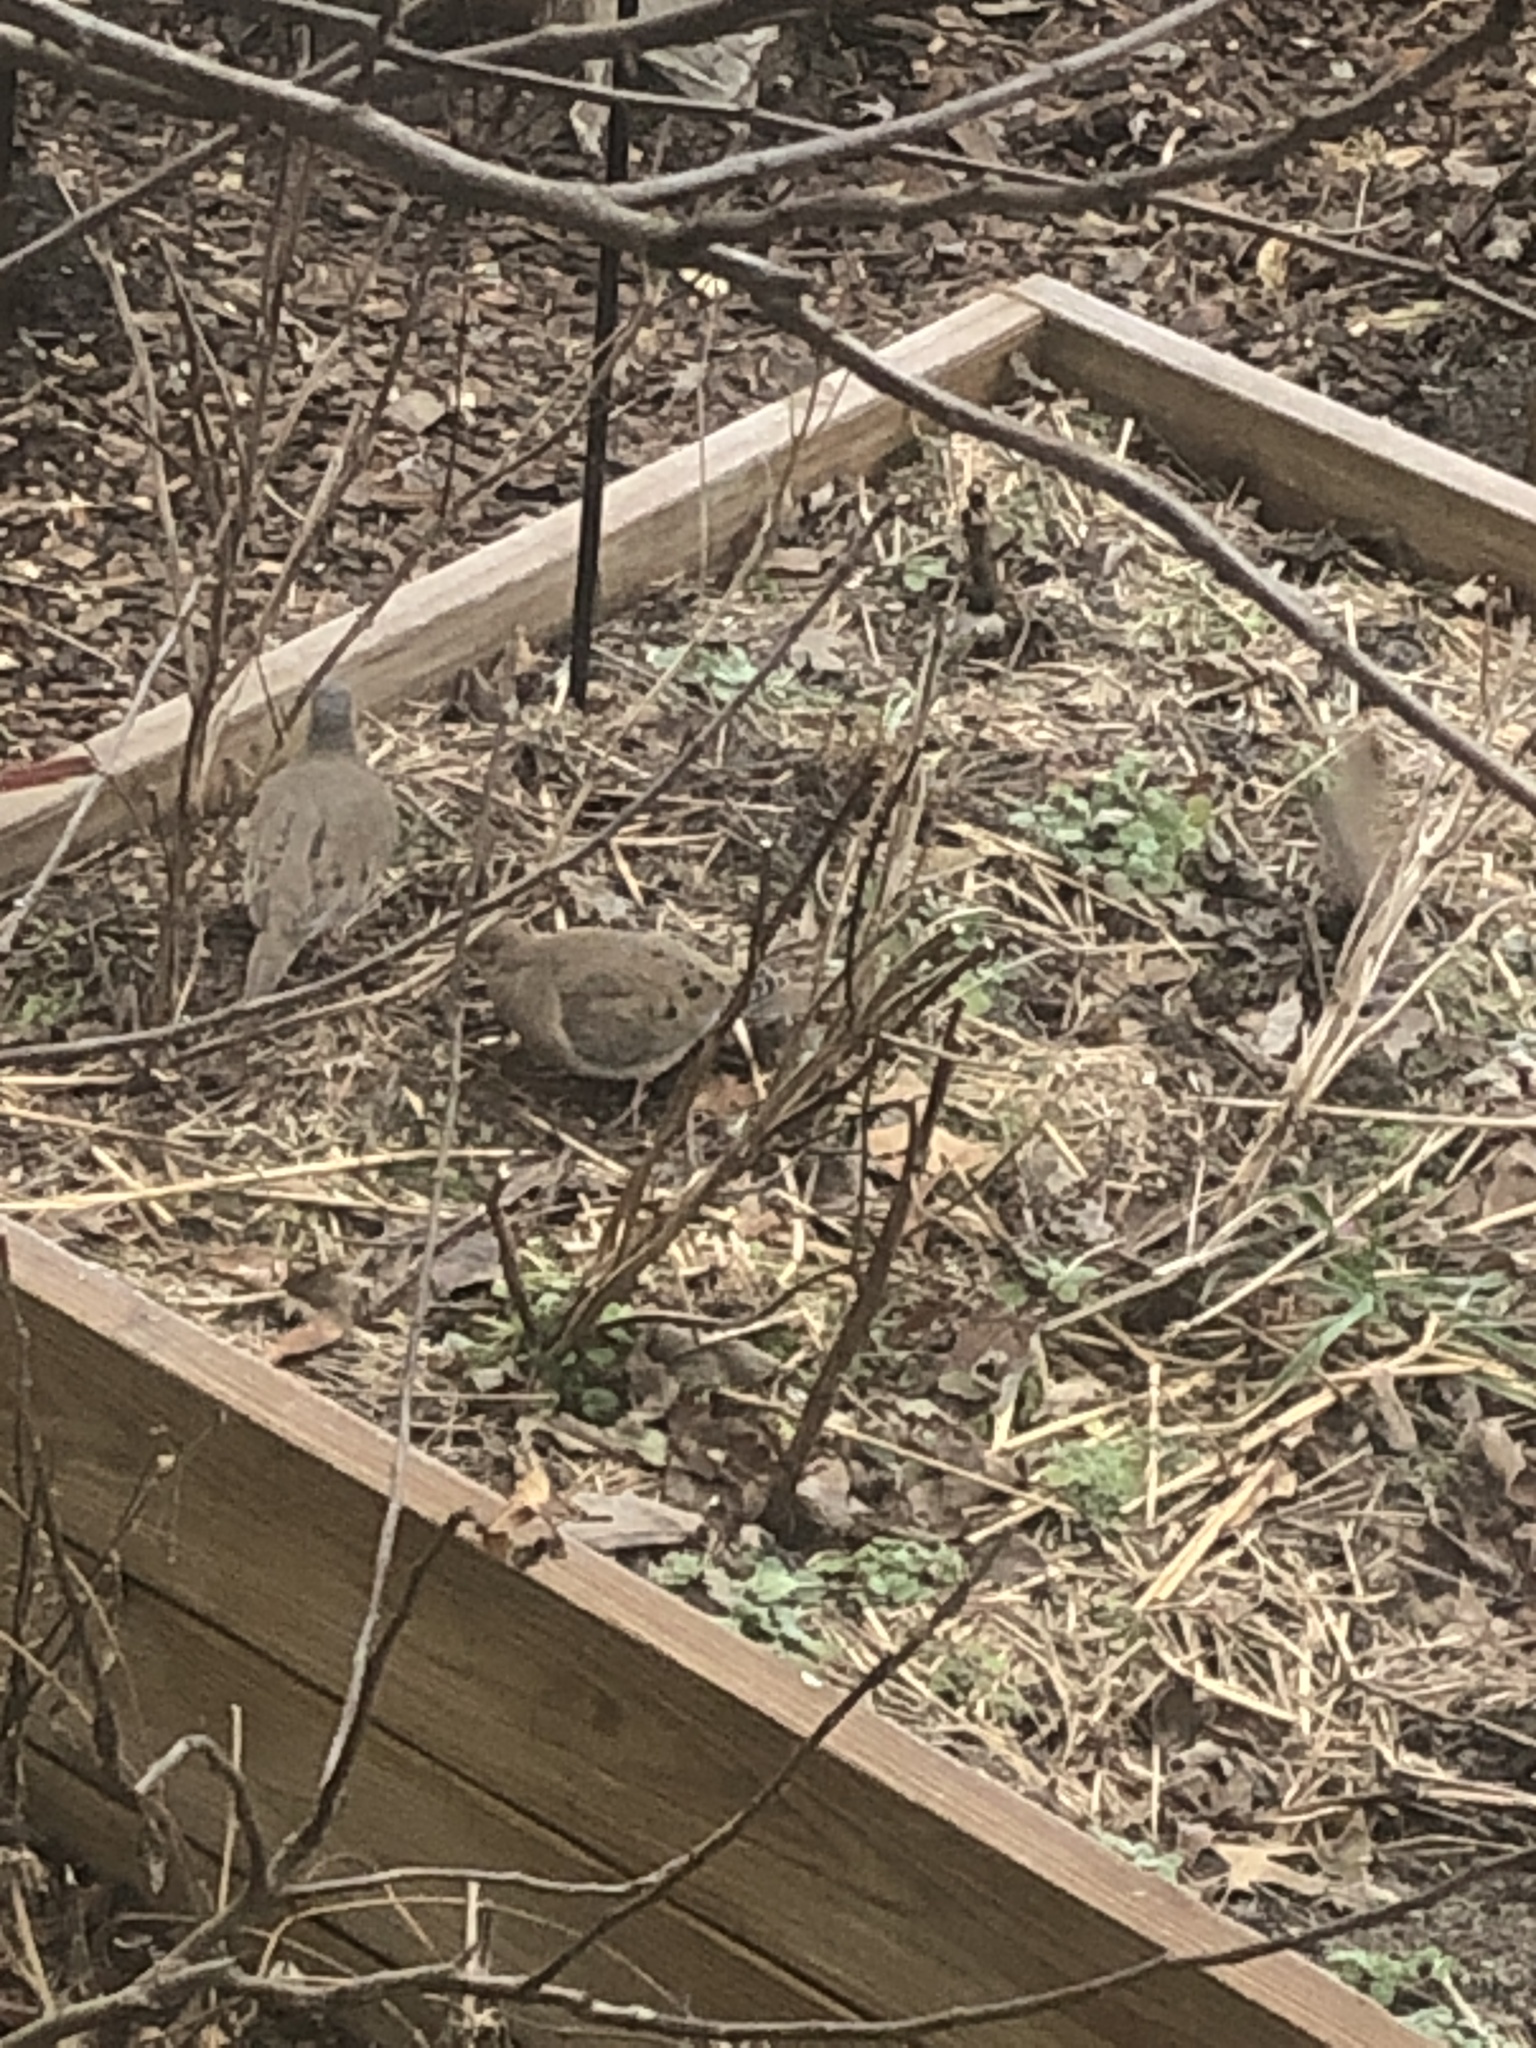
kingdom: Animalia
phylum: Chordata
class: Aves
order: Columbiformes
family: Columbidae
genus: Zenaida
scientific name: Zenaida macroura
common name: Mourning dove
